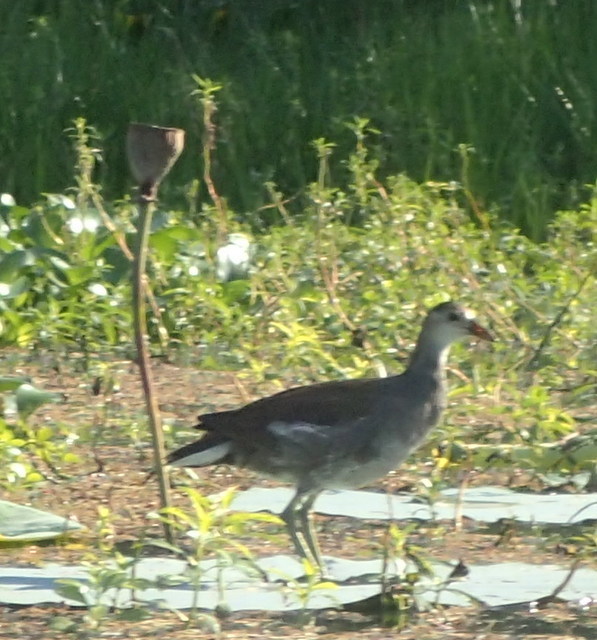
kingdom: Animalia
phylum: Chordata
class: Aves
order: Gruiformes
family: Rallidae
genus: Gallinula
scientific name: Gallinula chloropus
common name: Common moorhen
